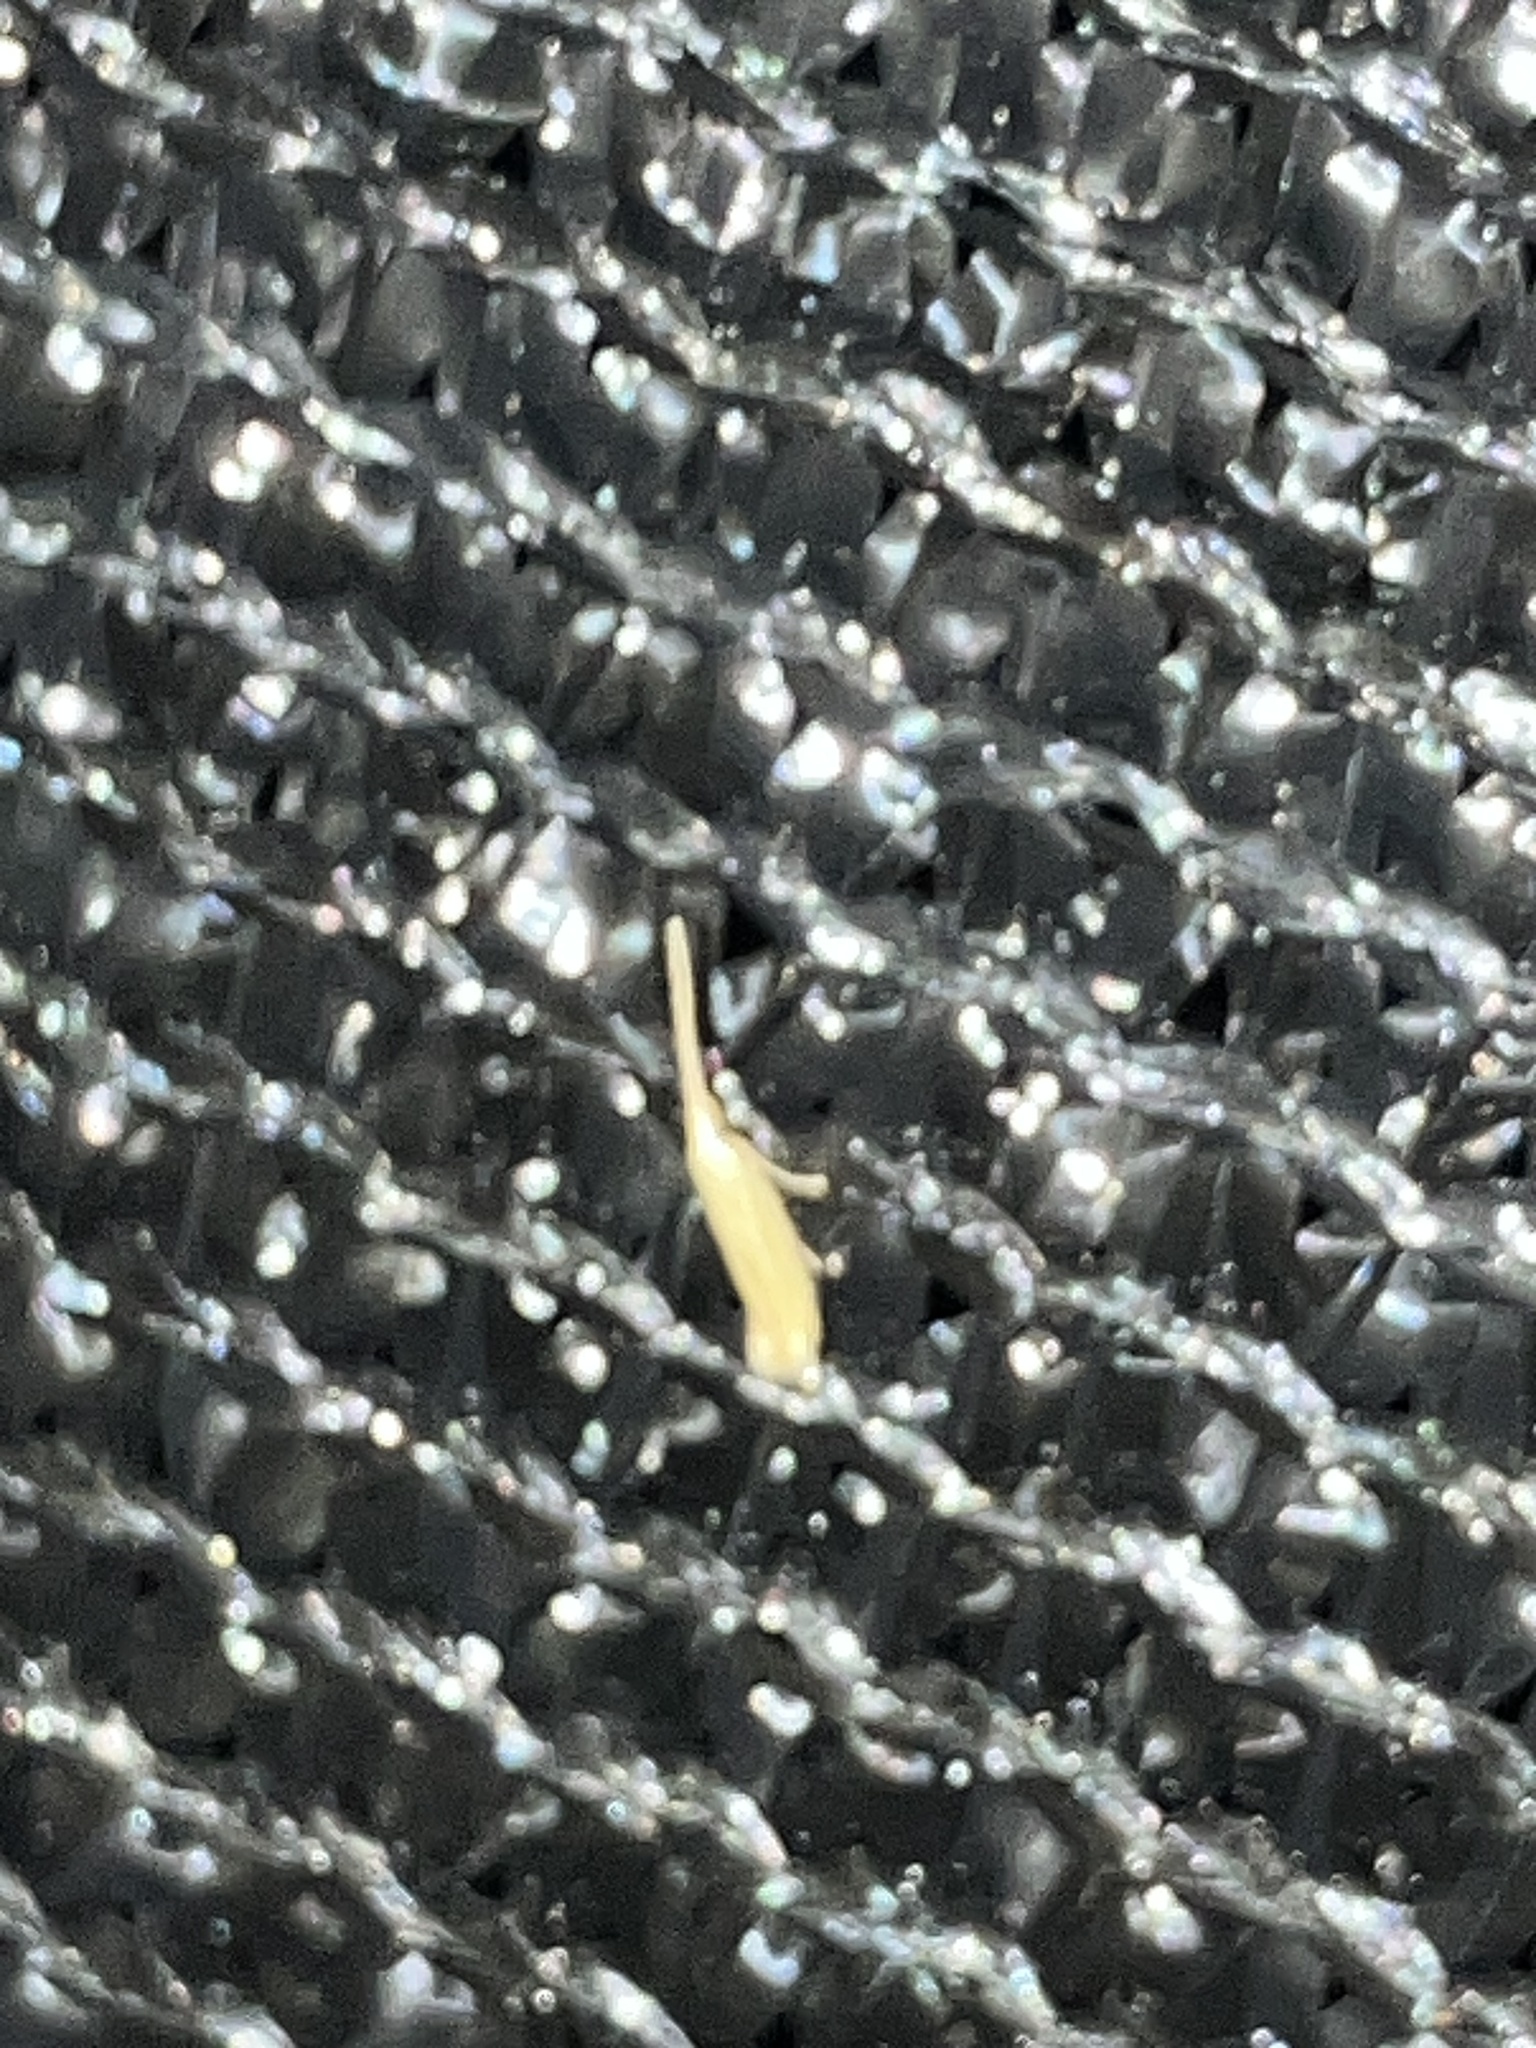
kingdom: Animalia
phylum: Arthropoda
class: Insecta
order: Lepidoptera
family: Coleophoridae
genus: Coleophora
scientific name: Coleophora
